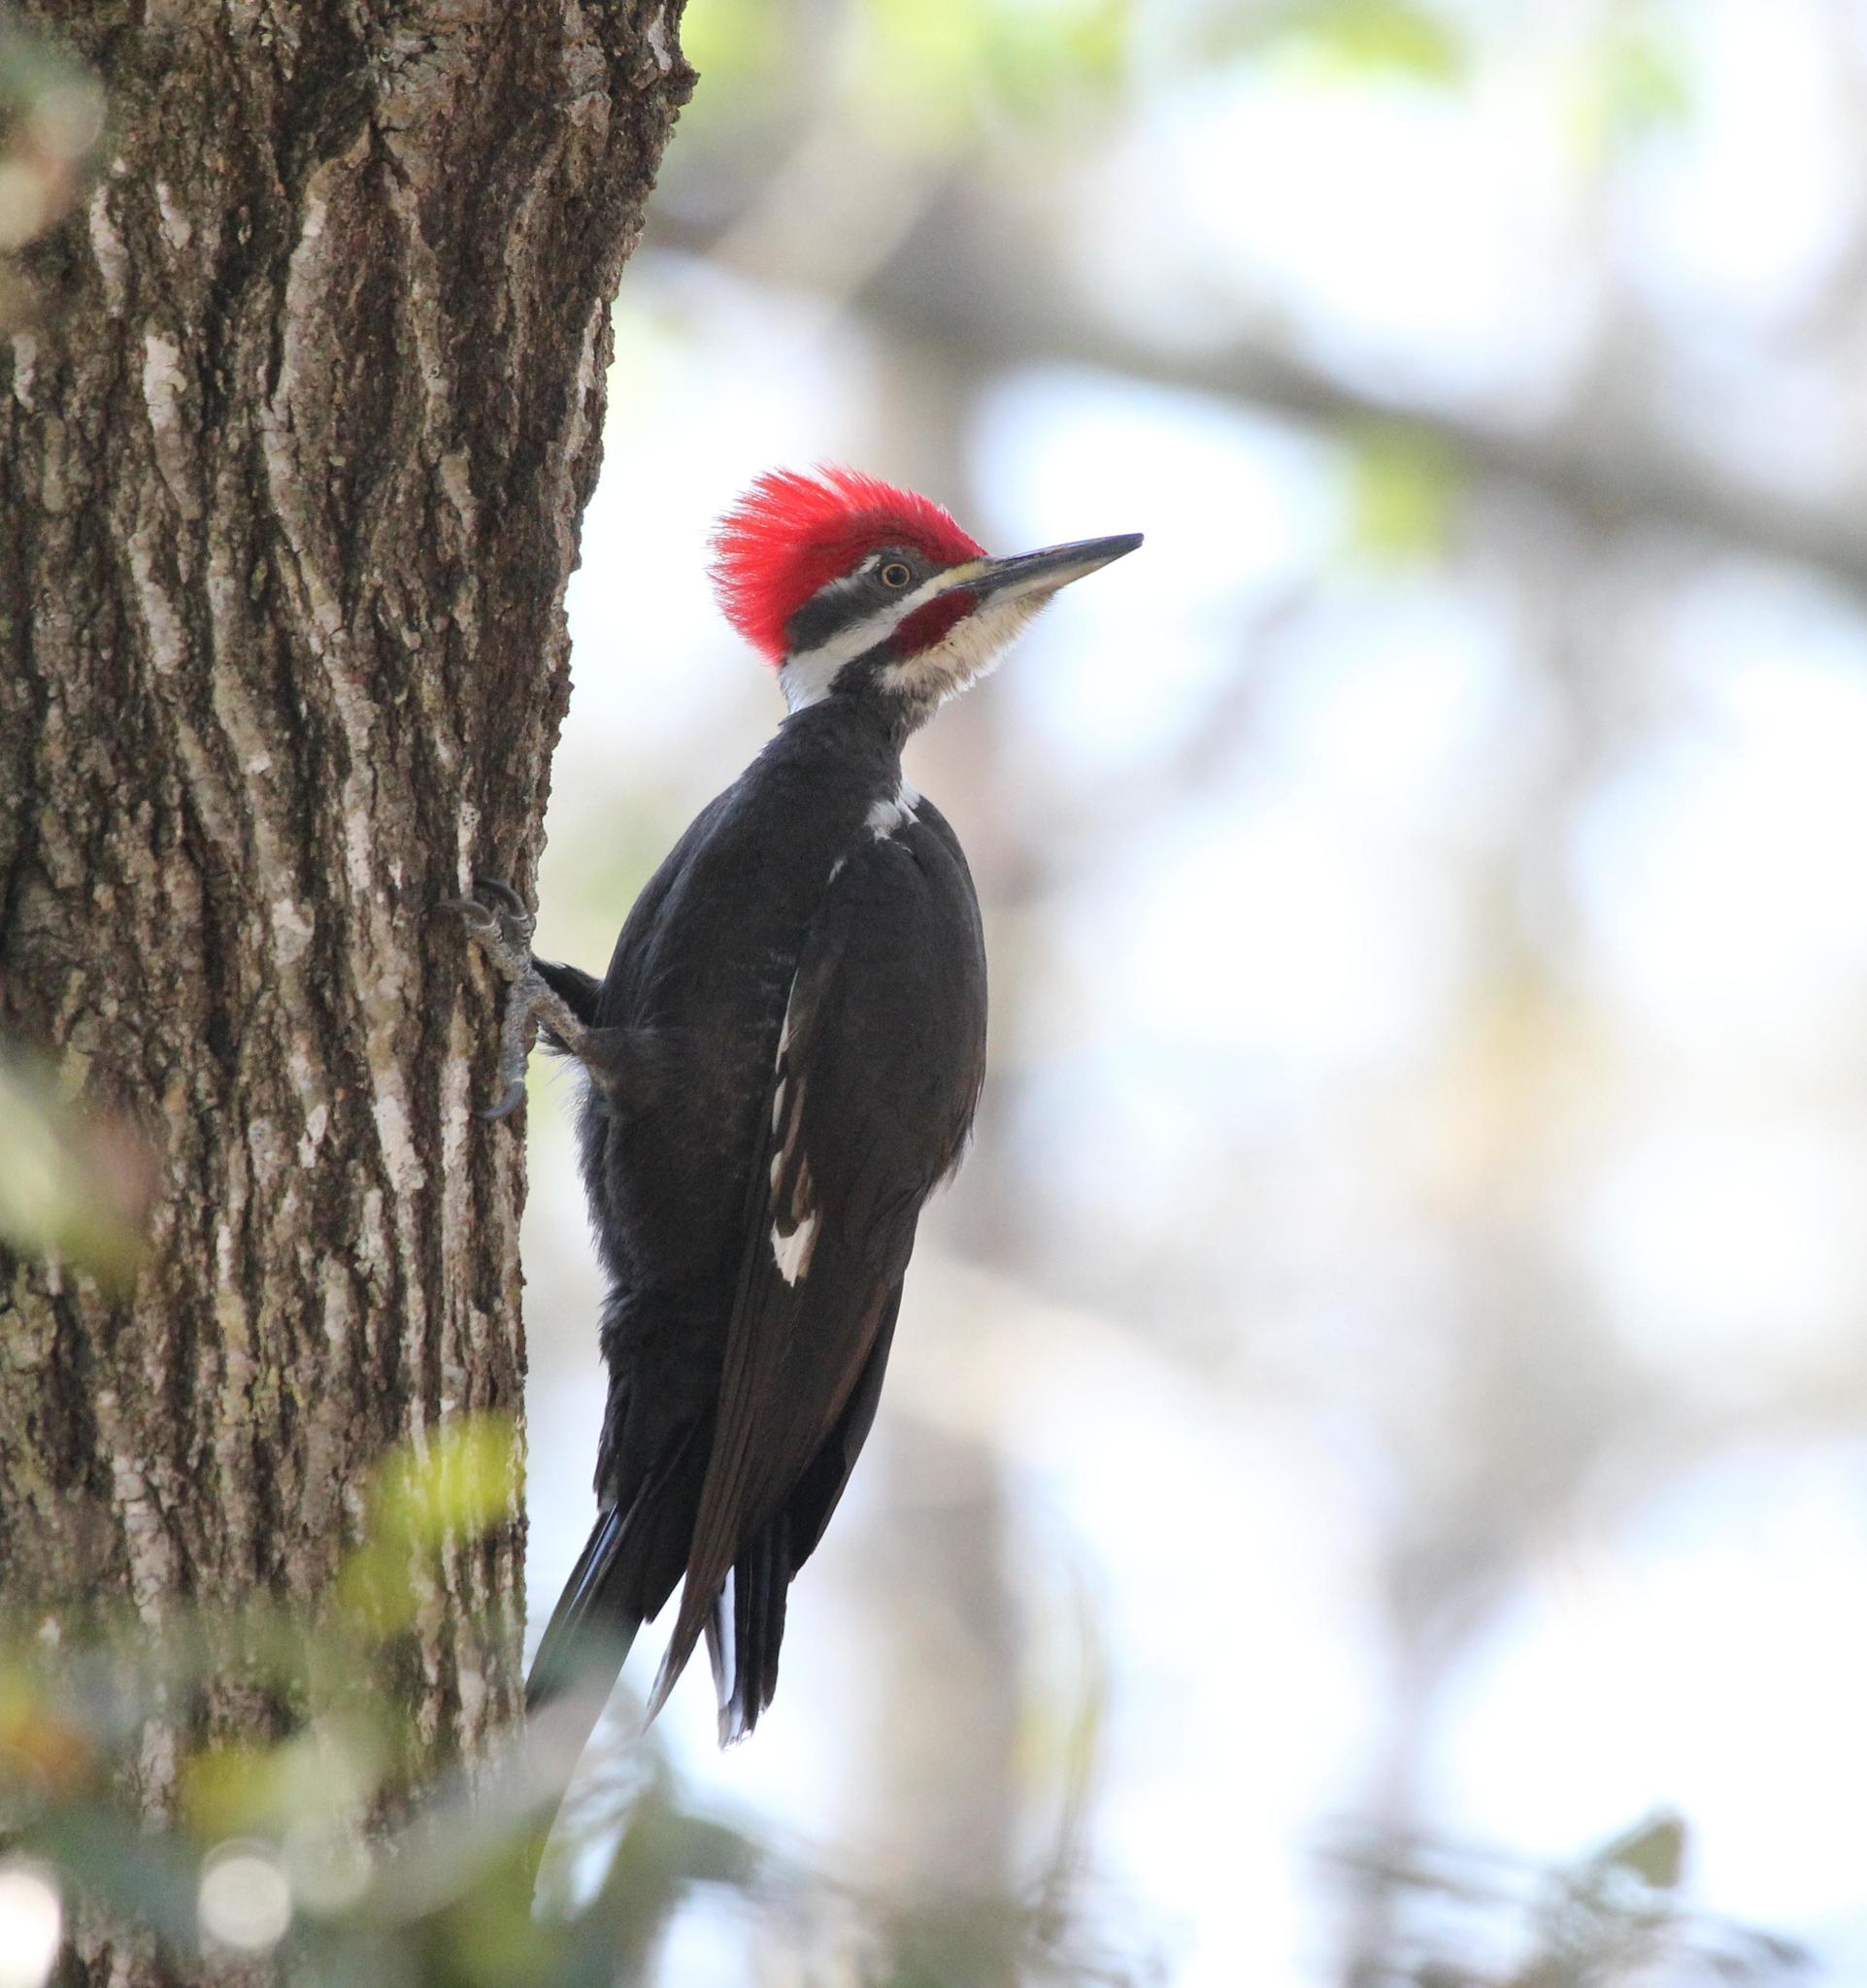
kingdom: Animalia
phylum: Chordata
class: Aves
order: Piciformes
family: Picidae
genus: Dryocopus
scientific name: Dryocopus pileatus
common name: Pileated woodpecker
